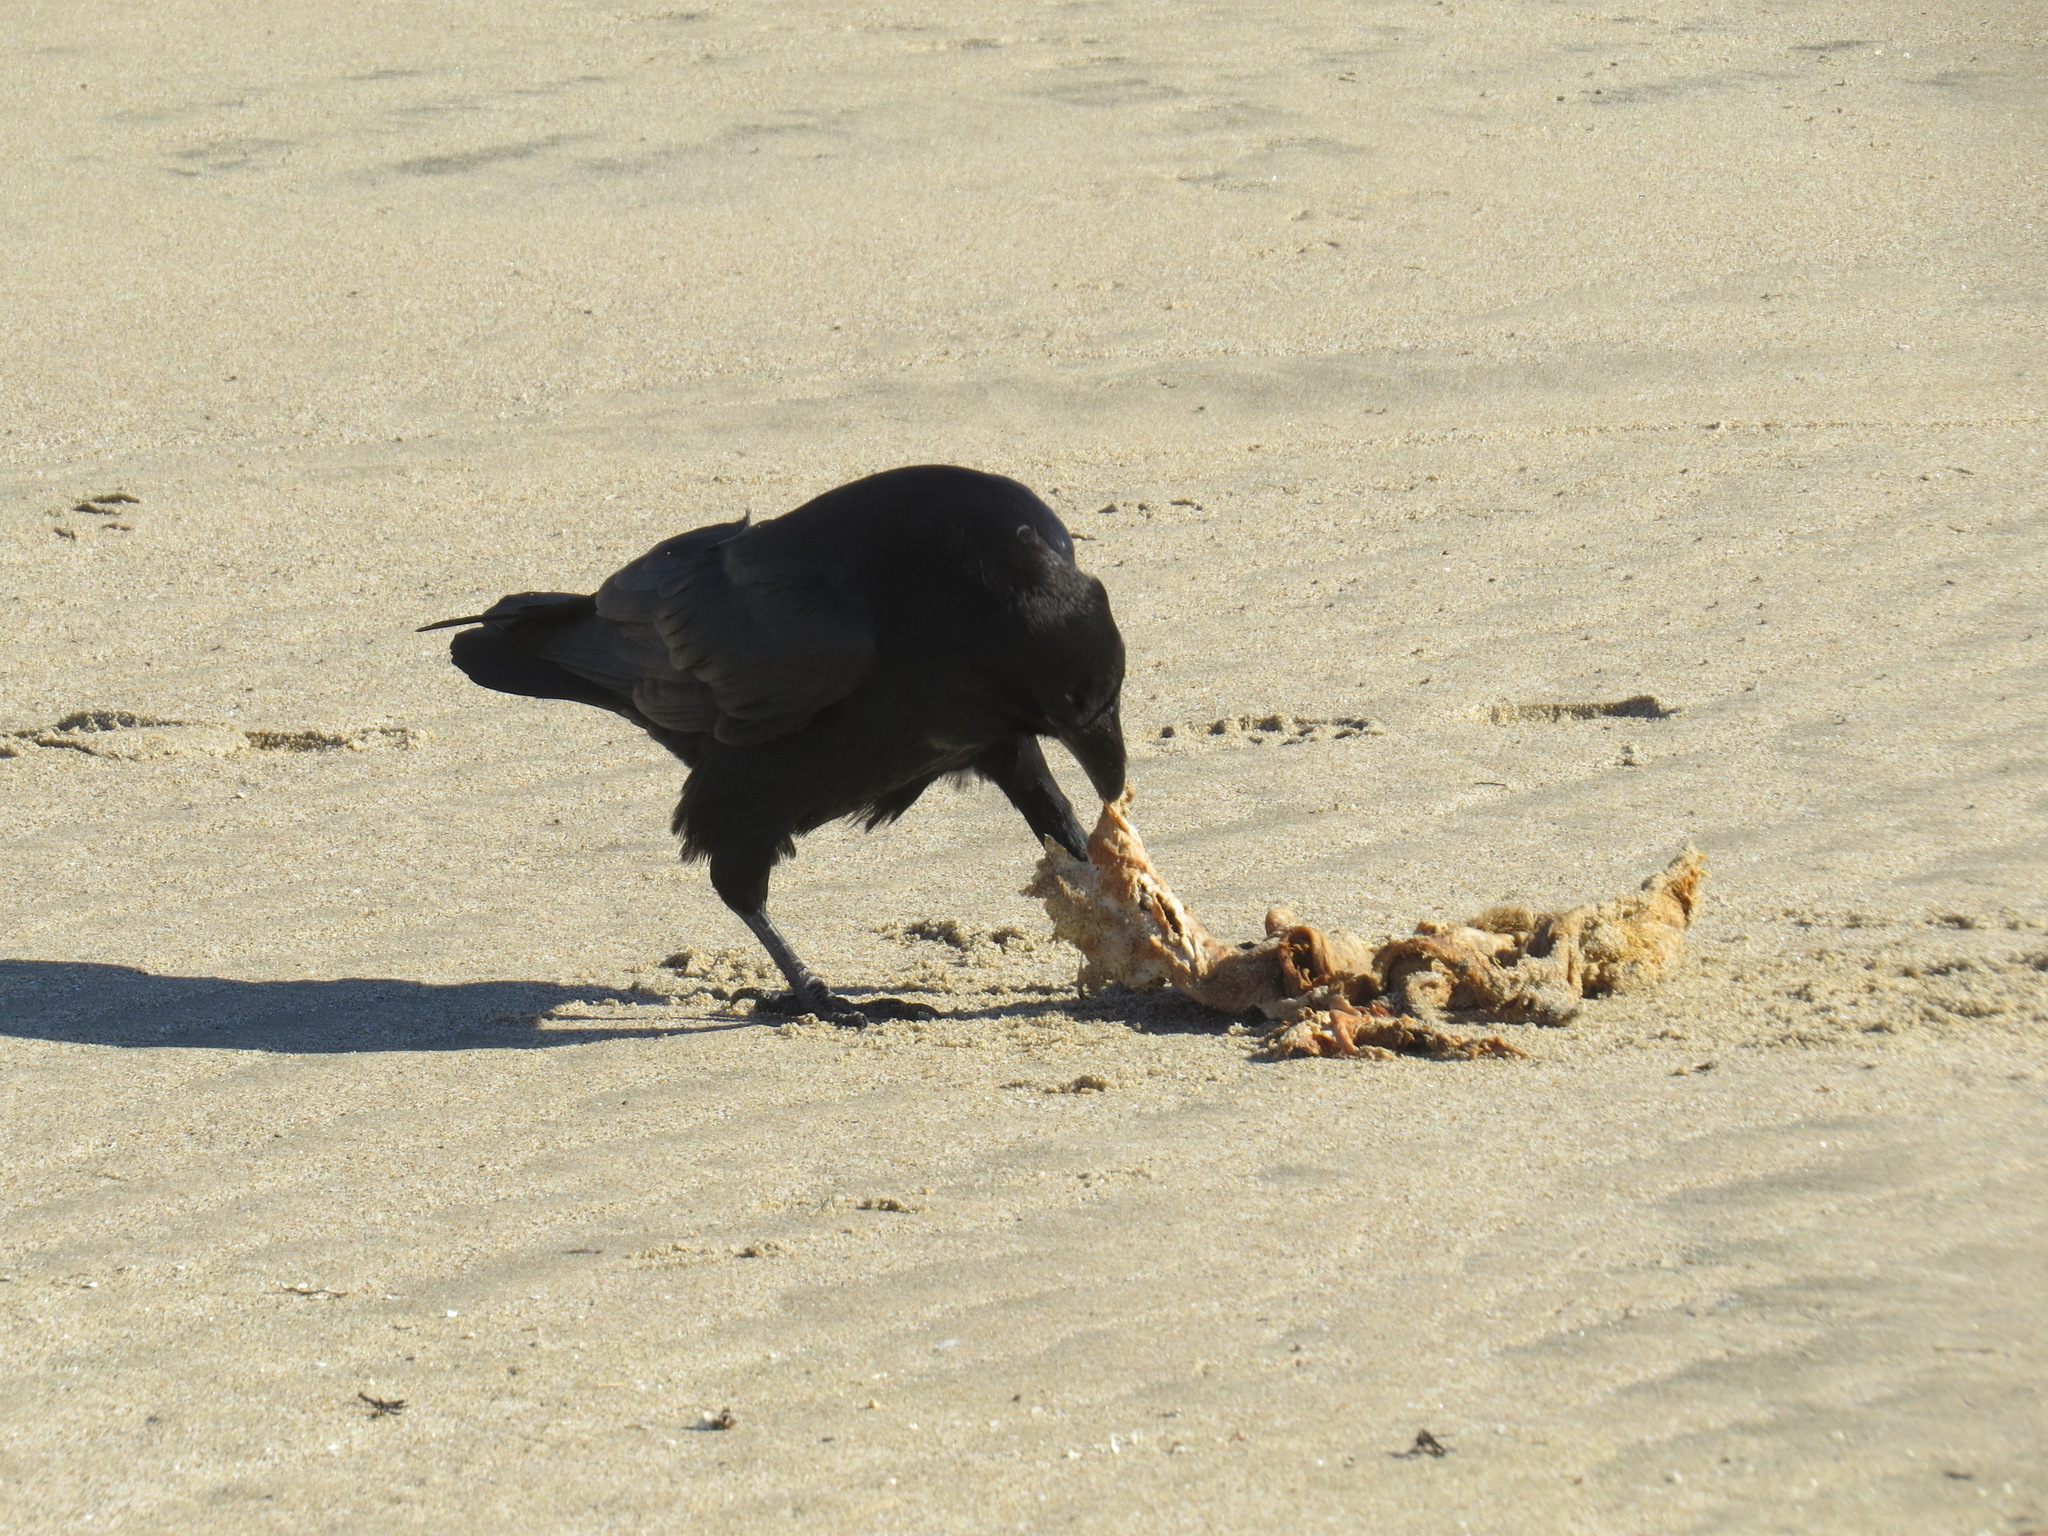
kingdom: Animalia
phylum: Chordata
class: Aves
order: Passeriformes
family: Corvidae
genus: Corvus
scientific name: Corvus corax
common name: Common raven
